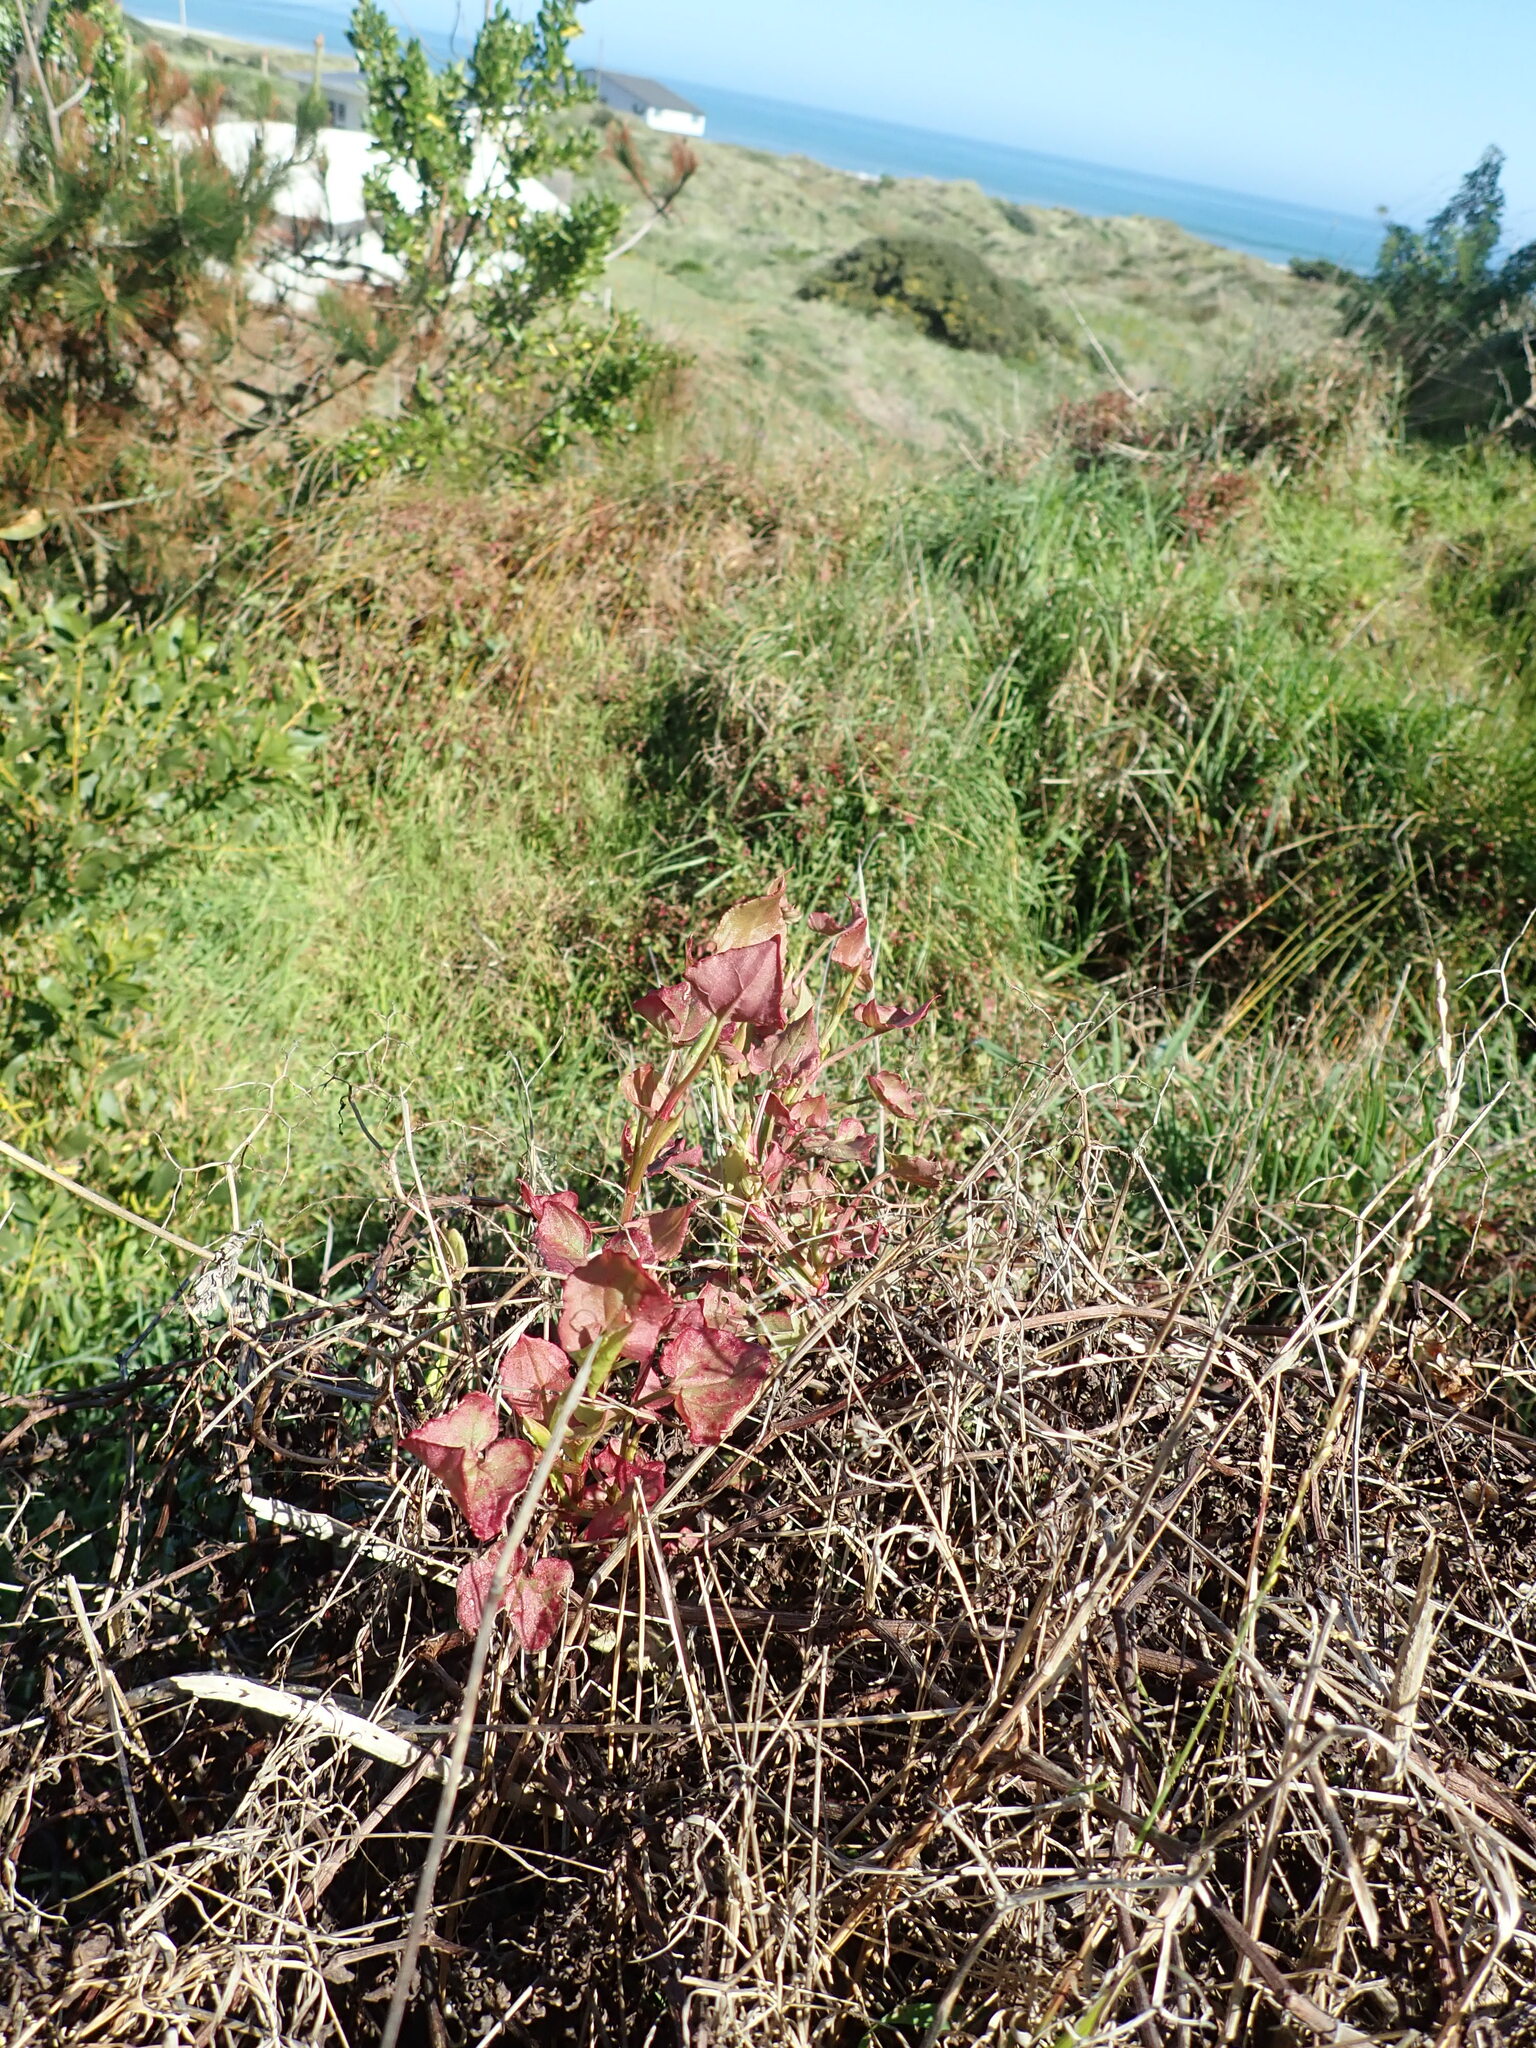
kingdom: Plantae
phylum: Tracheophyta
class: Magnoliopsida
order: Caryophyllales
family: Polygonaceae
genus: Rumex
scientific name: Rumex sagittatus
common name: Climbing dock
